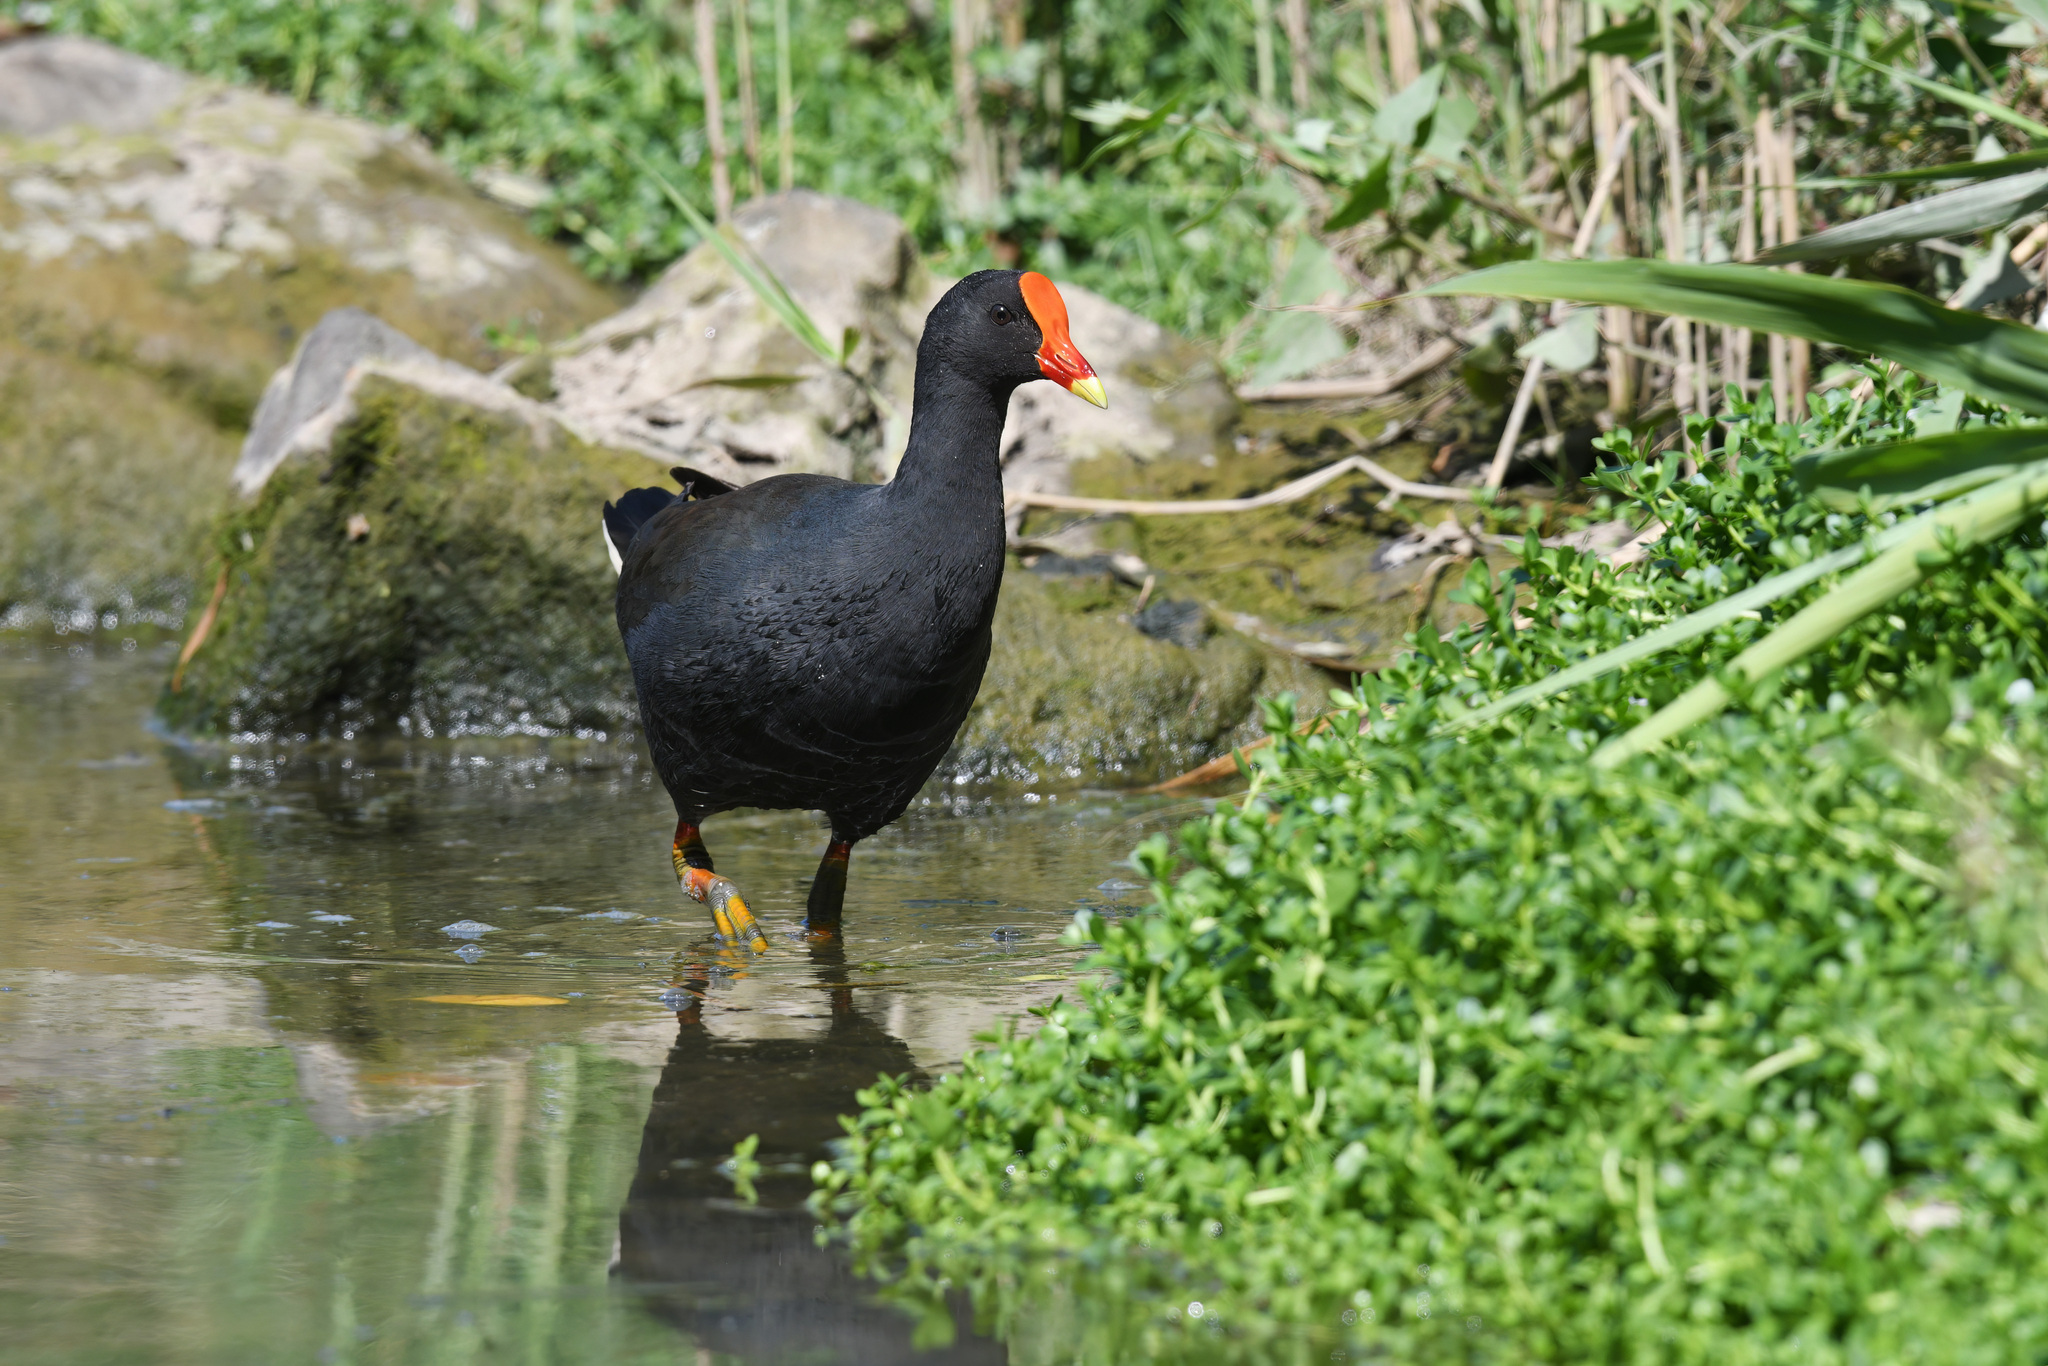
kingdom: Animalia
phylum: Chordata
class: Aves
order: Gruiformes
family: Rallidae
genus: Gallinula
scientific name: Gallinula tenebrosa
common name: Dusky moorhen
